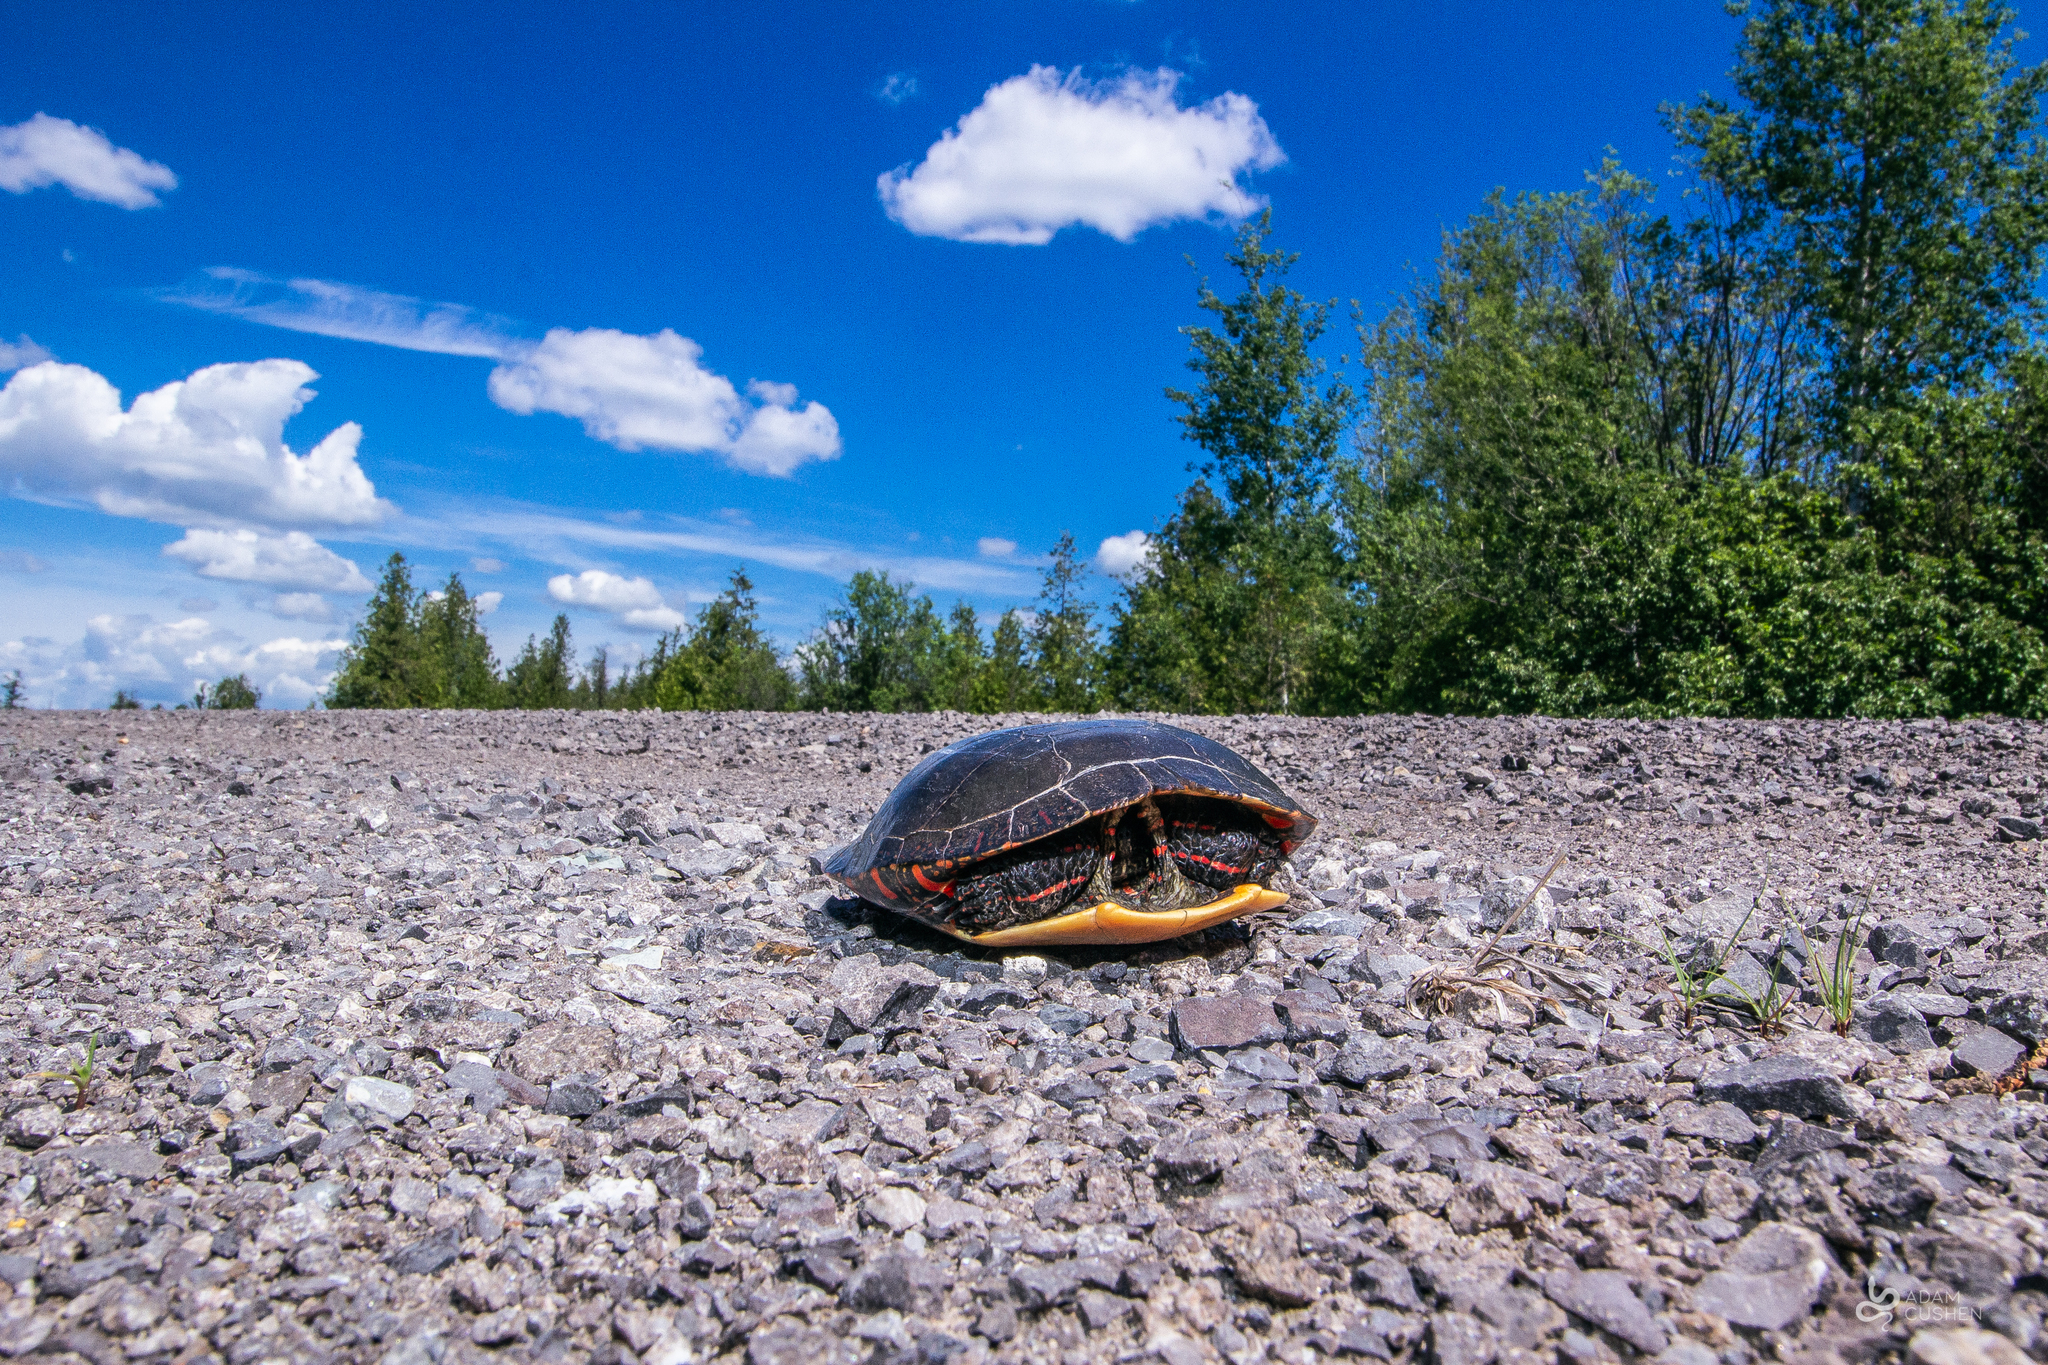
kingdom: Animalia
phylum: Chordata
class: Testudines
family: Emydidae
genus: Chrysemys
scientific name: Chrysemys picta
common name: Painted turtle
